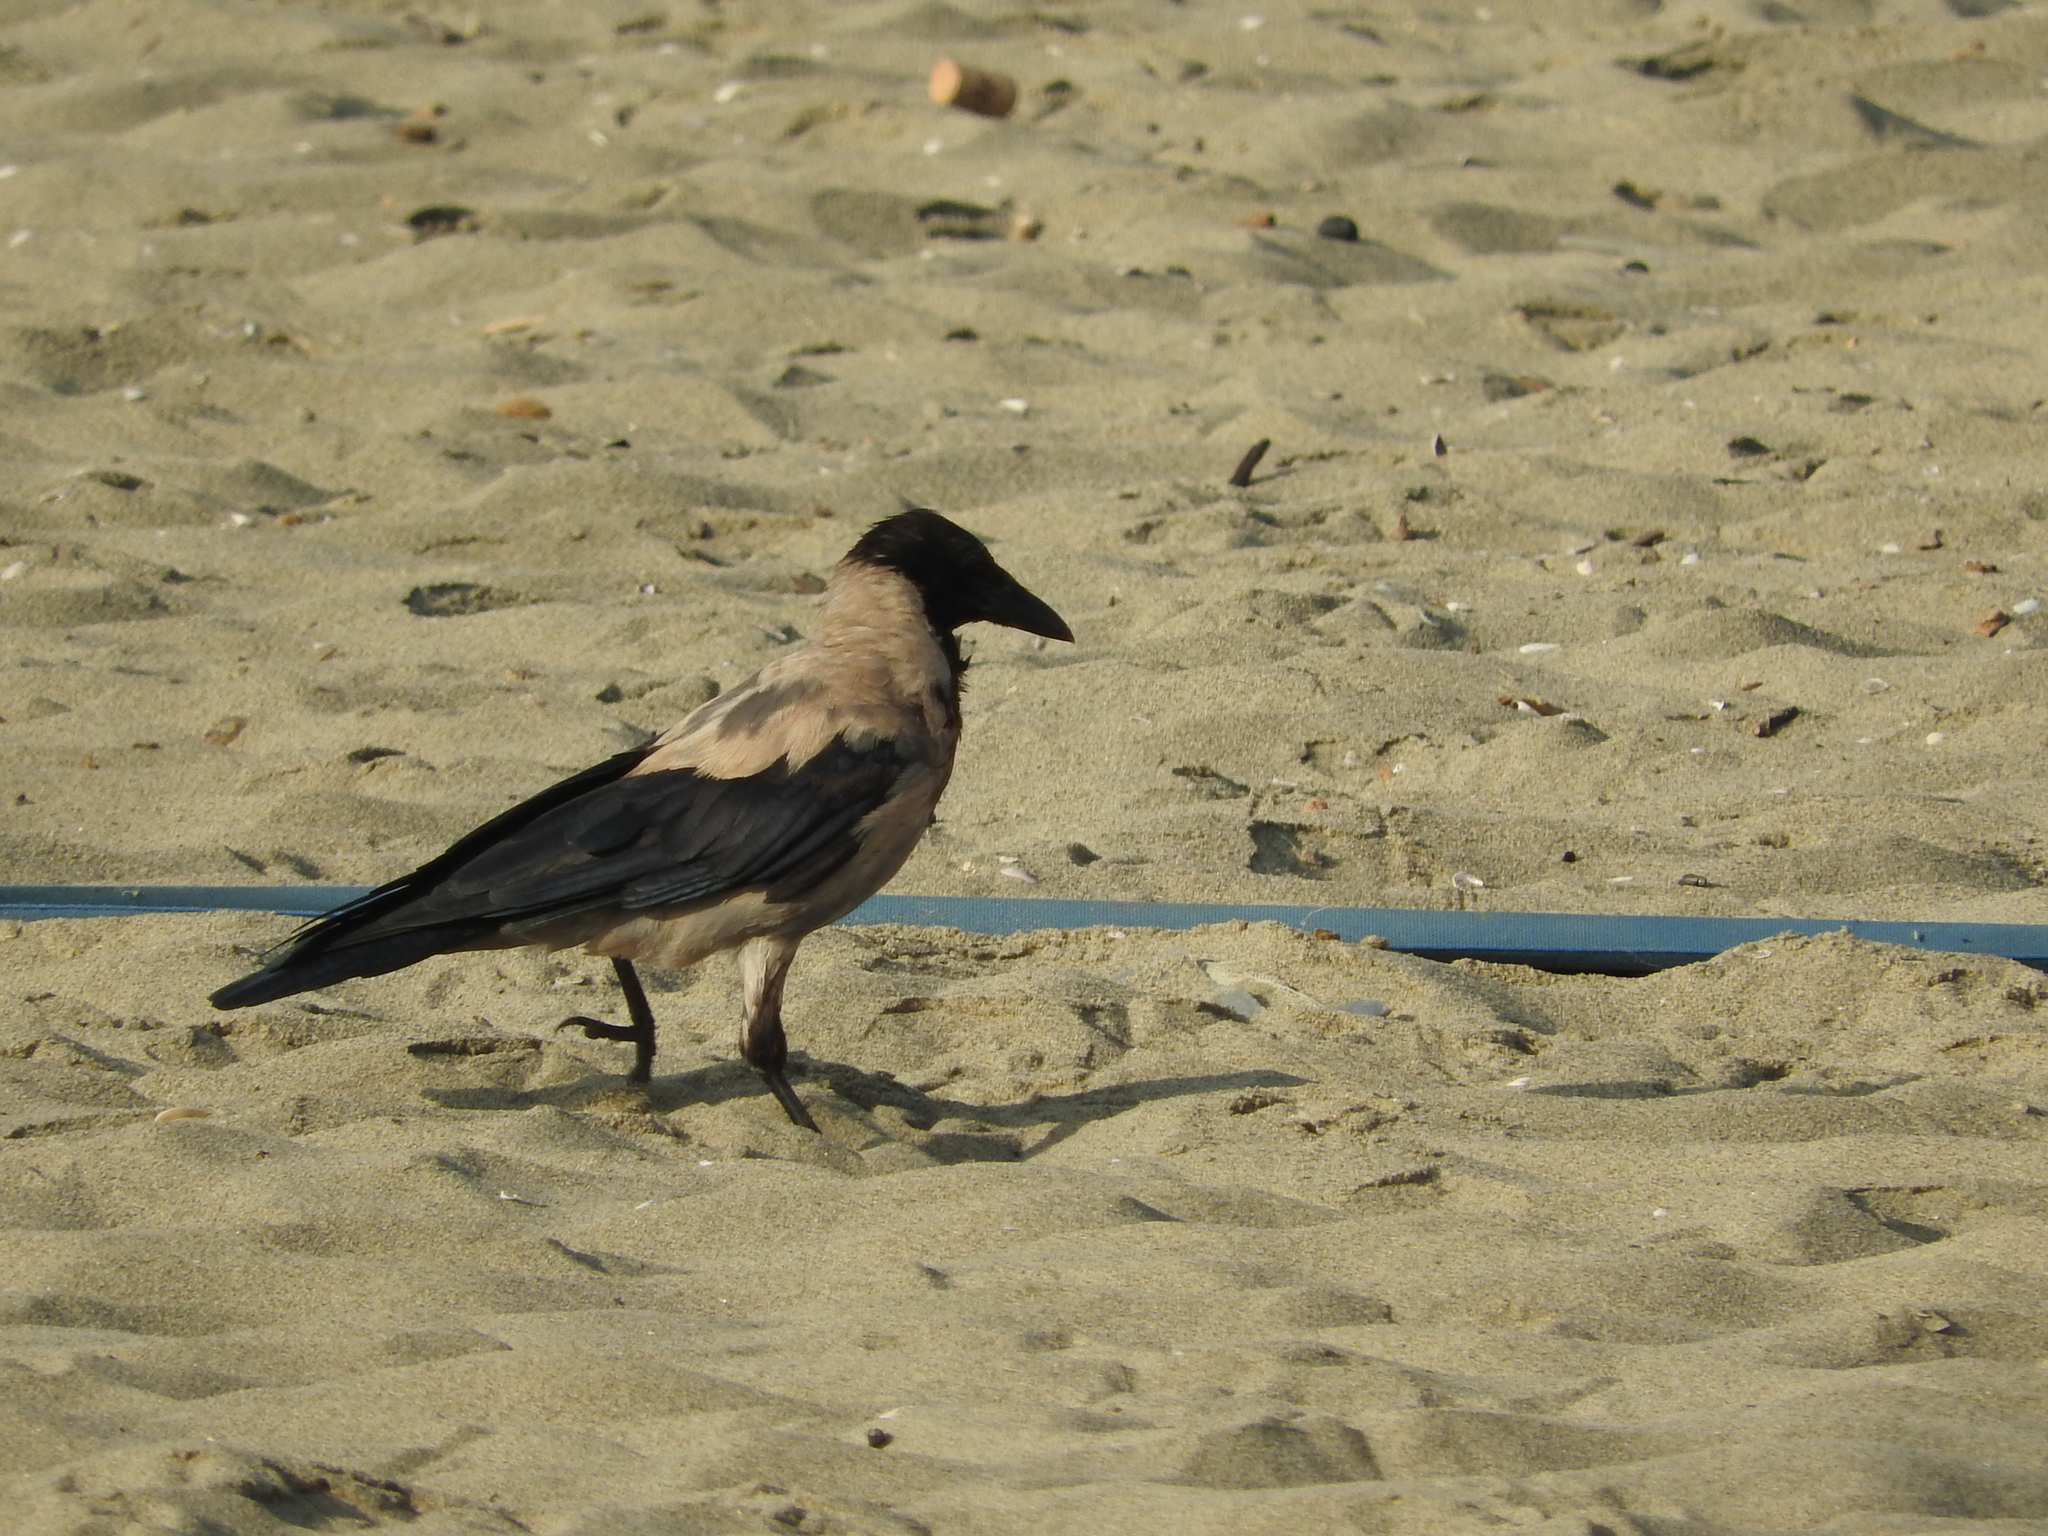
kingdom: Animalia
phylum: Chordata
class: Aves
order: Passeriformes
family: Corvidae
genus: Corvus
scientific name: Corvus cornix
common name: Hooded crow
